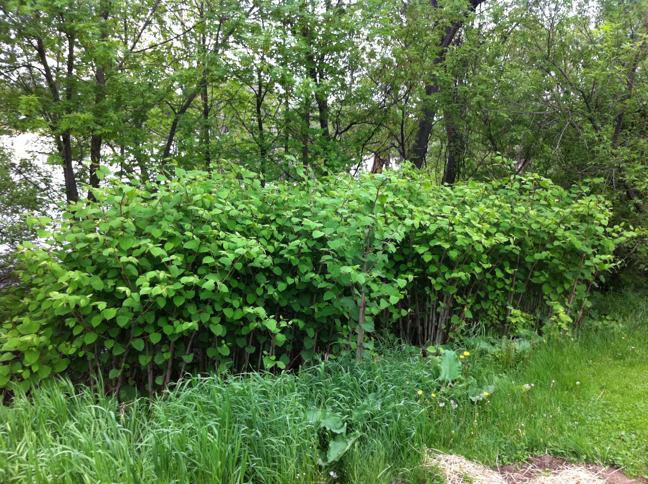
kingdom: Plantae
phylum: Tracheophyta
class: Magnoliopsida
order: Caryophyllales
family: Polygonaceae
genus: Reynoutria
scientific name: Reynoutria japonica
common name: Japanese knotweed
